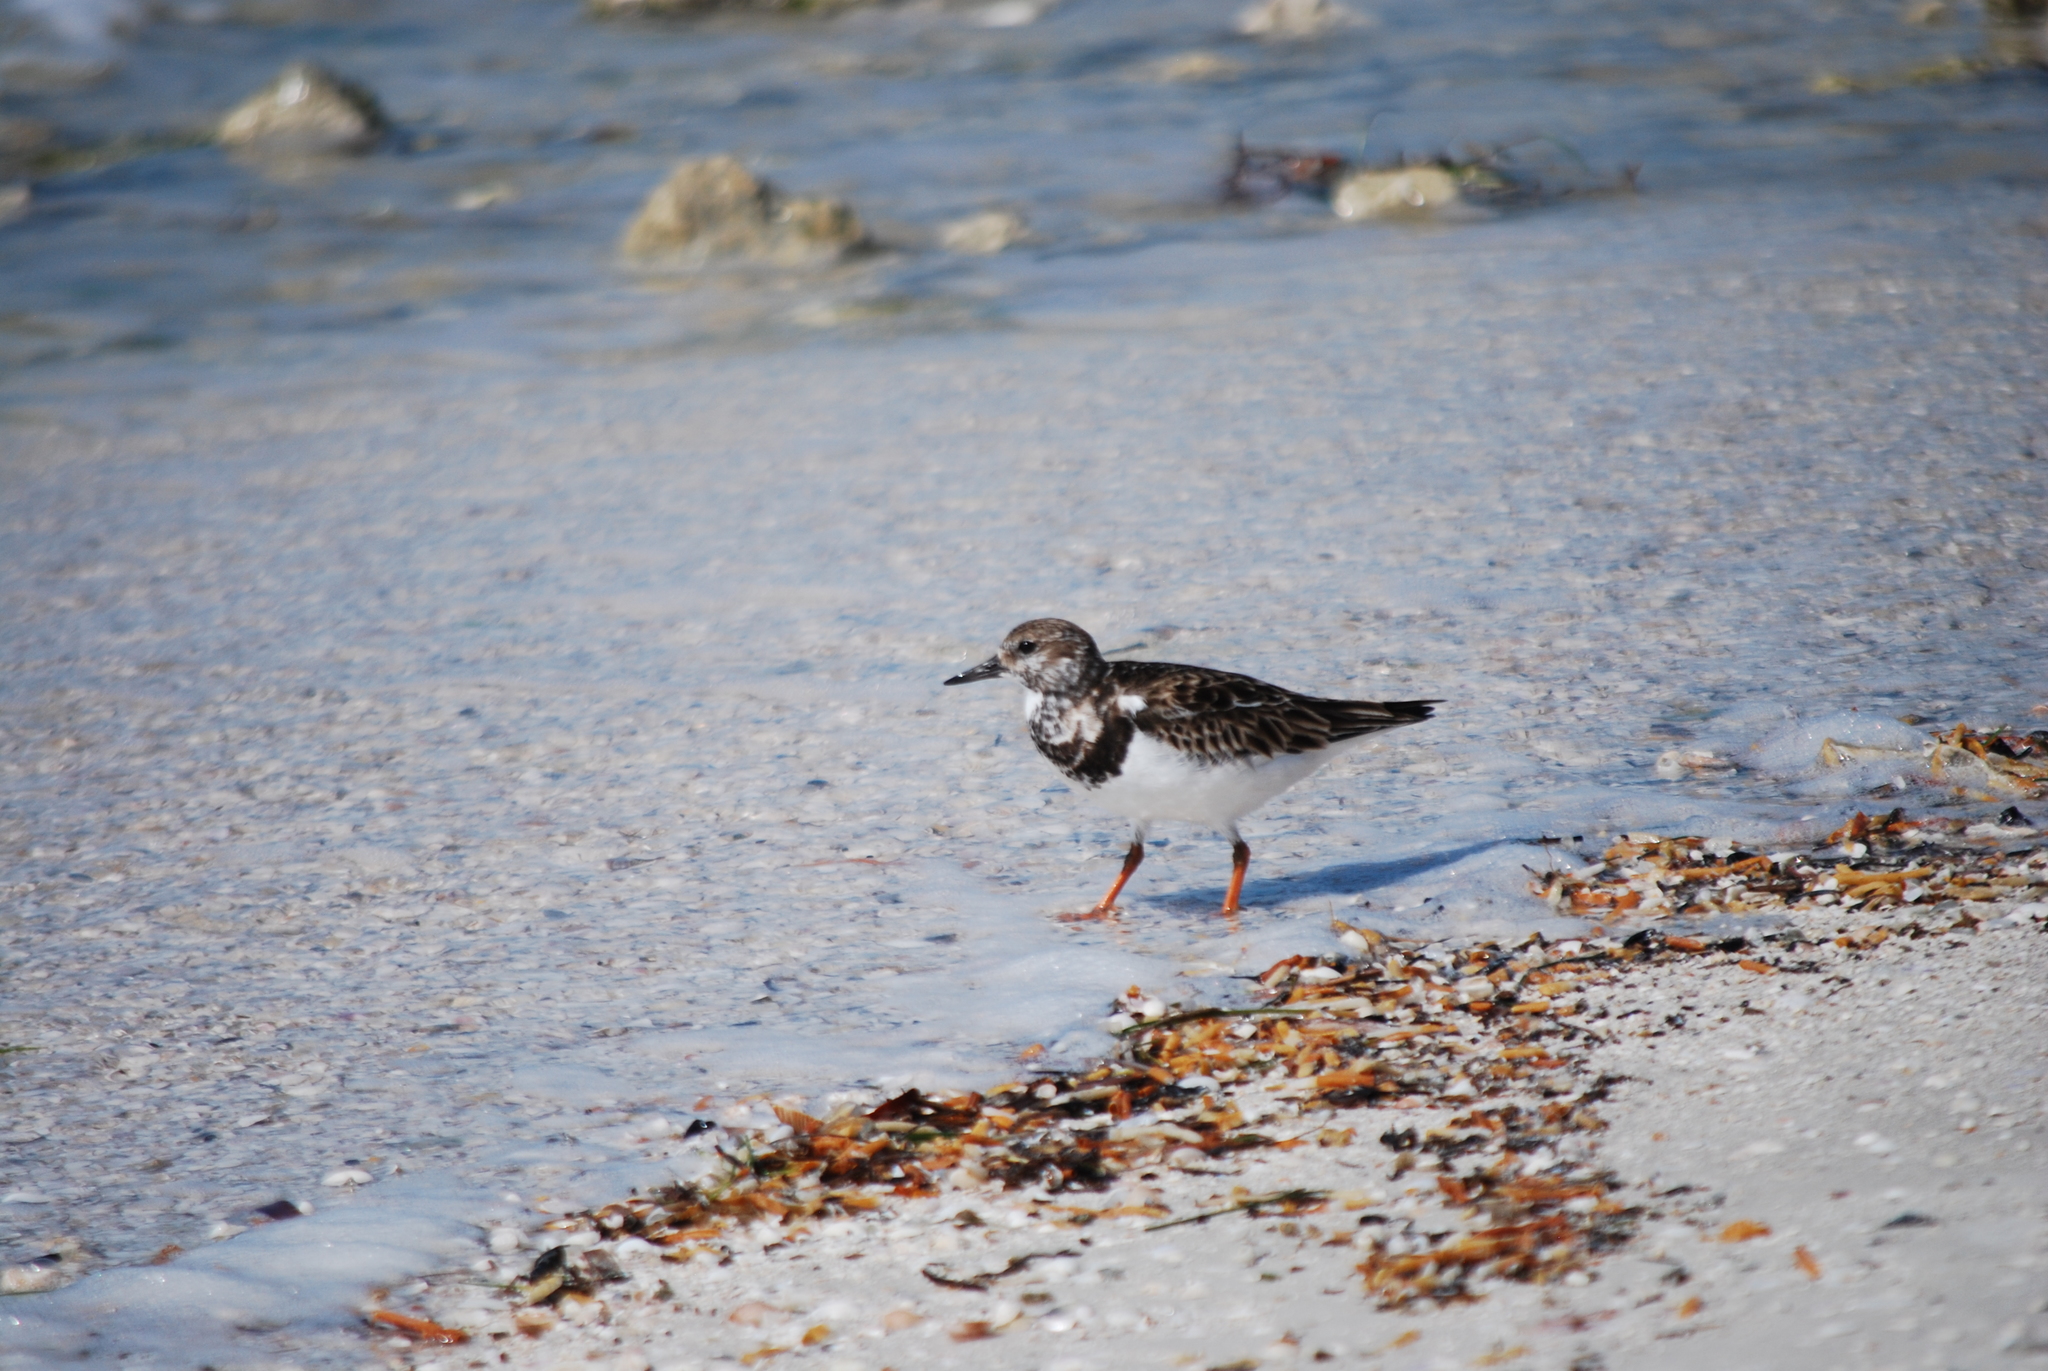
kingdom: Animalia
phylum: Chordata
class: Aves
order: Charadriiformes
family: Scolopacidae
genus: Arenaria
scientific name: Arenaria interpres
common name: Ruddy turnstone
